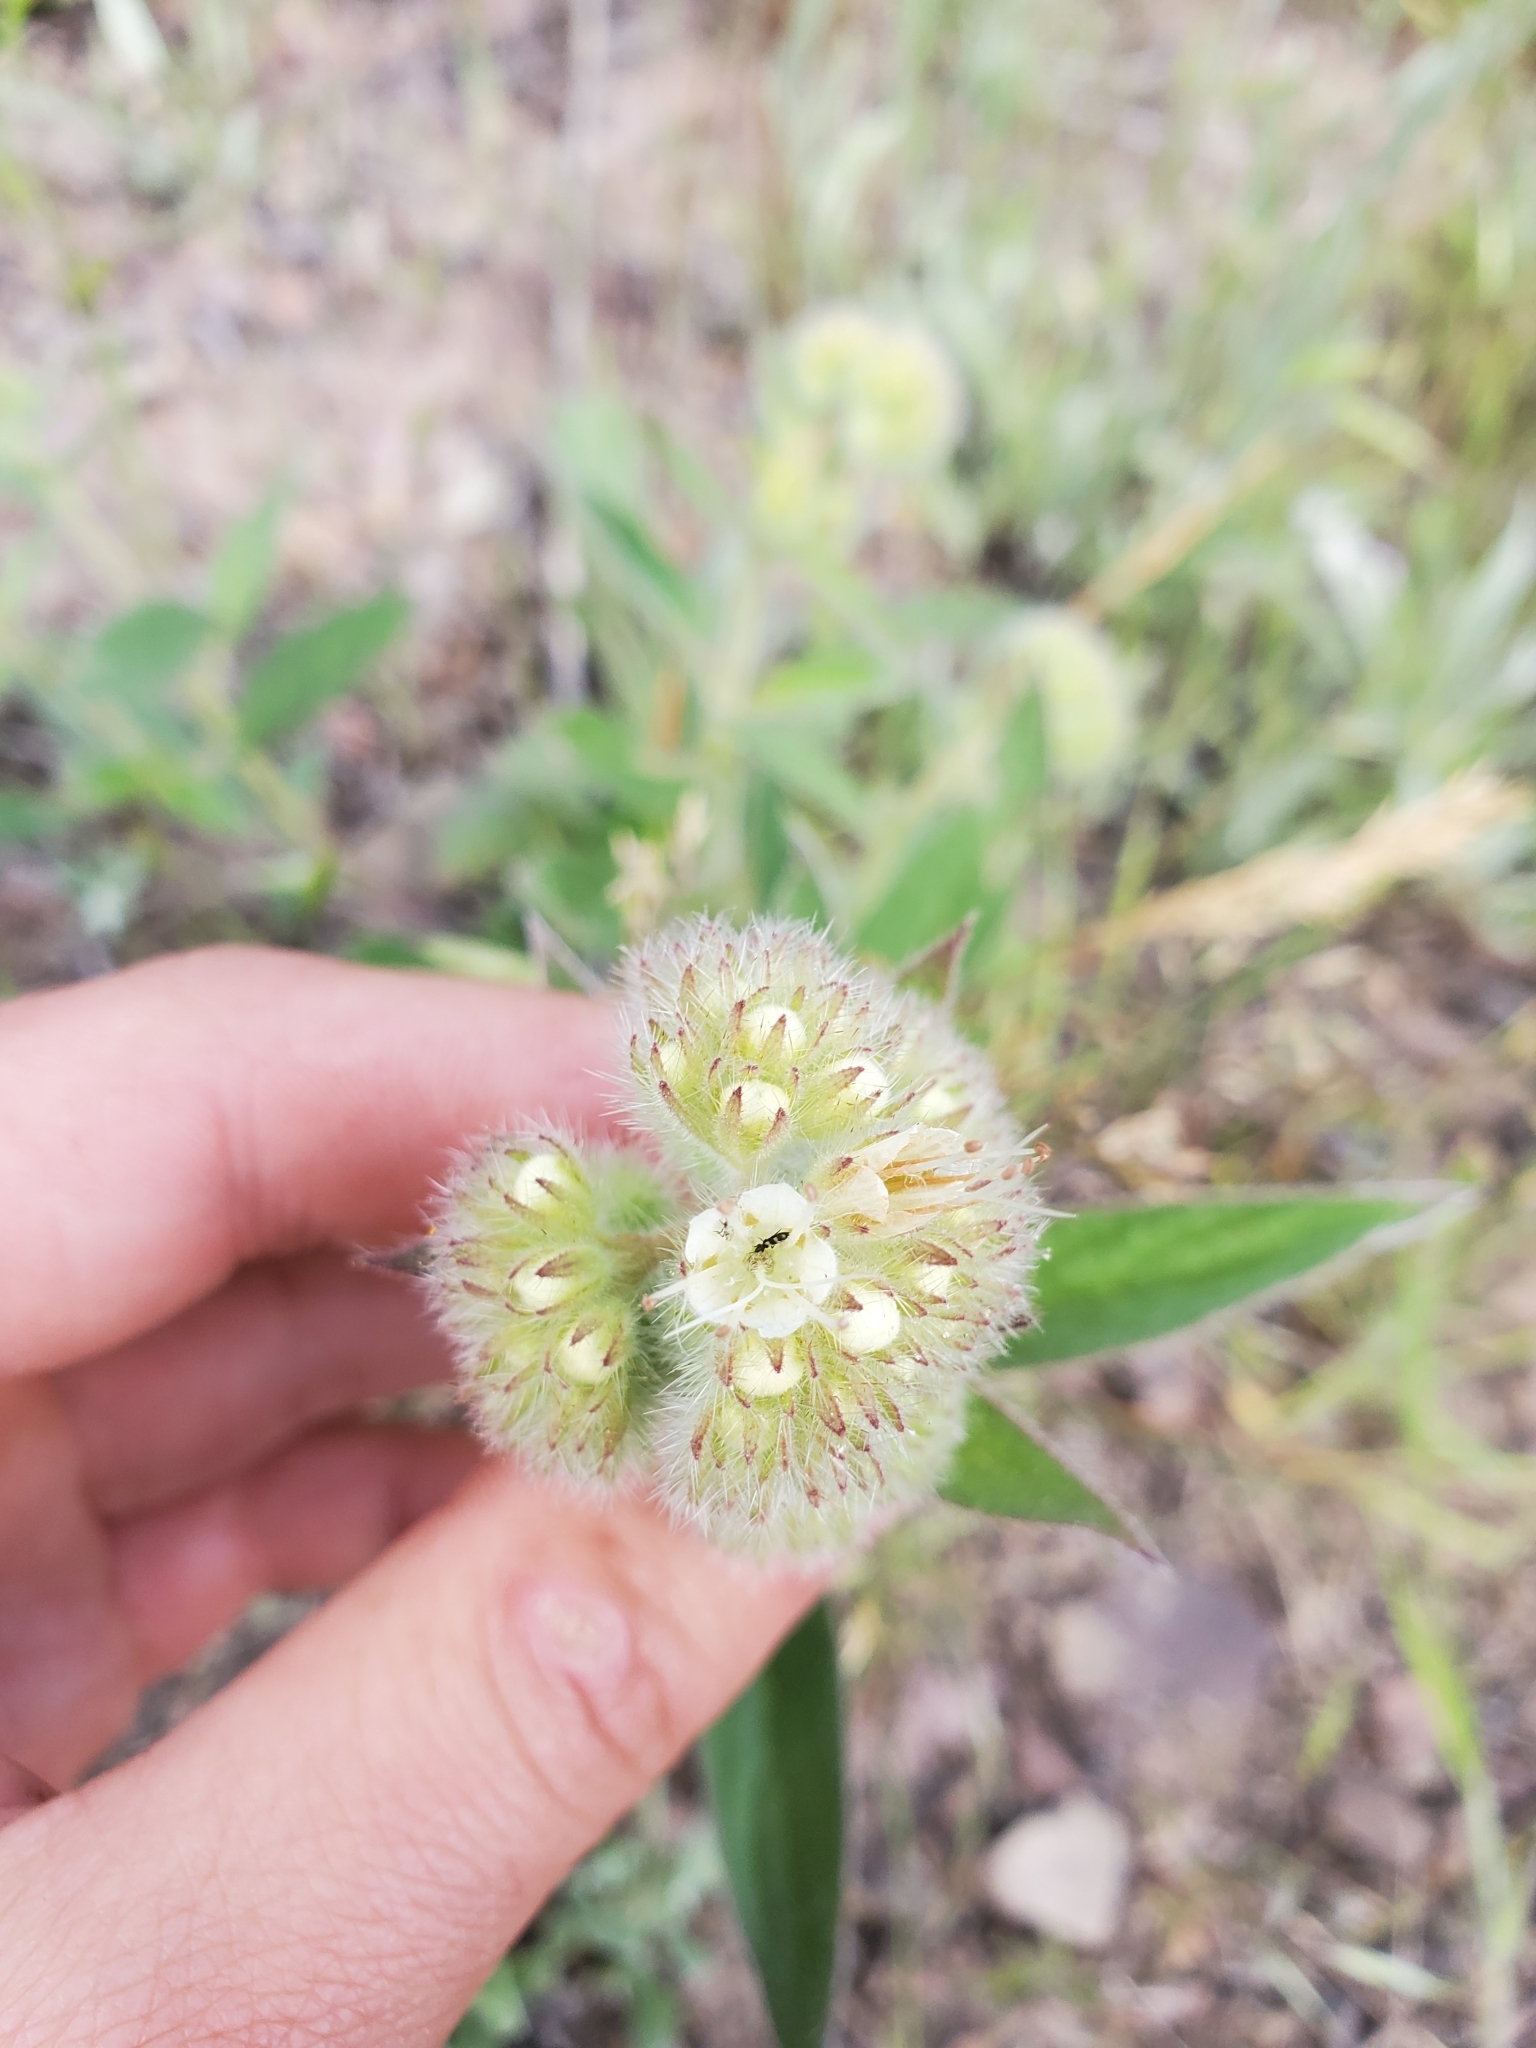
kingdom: Plantae
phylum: Tracheophyta
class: Magnoliopsida
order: Boraginales
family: Hydrophyllaceae
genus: Phacelia
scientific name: Phacelia heterophylla
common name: Variable-leaved phacelia
